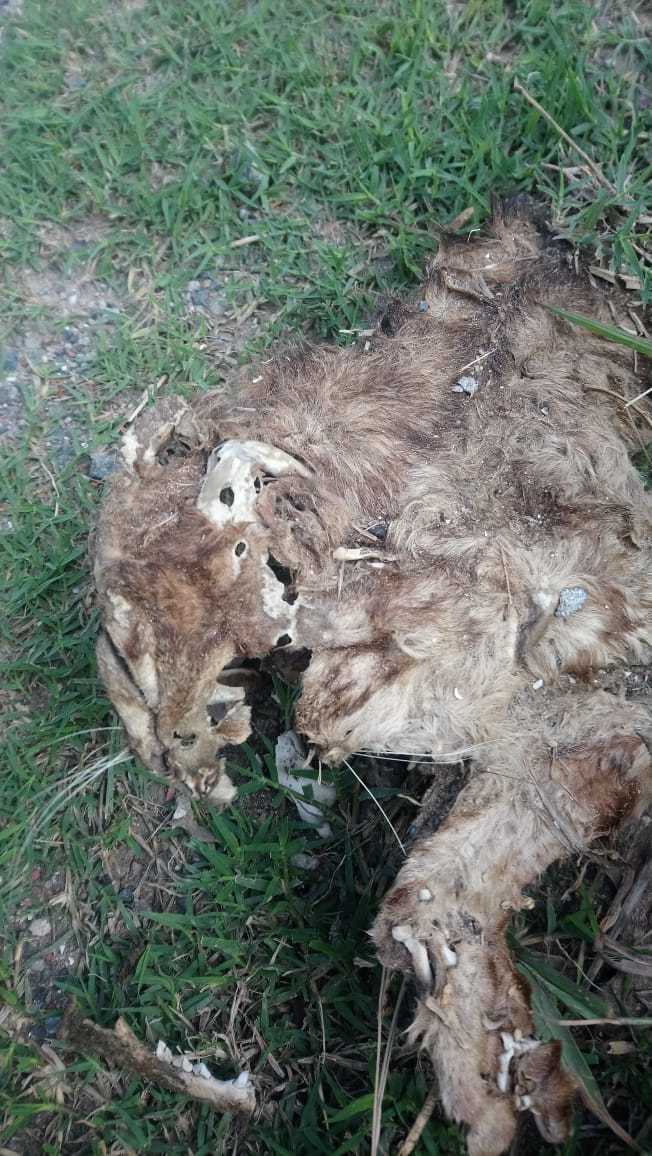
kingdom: Animalia
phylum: Chordata
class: Mammalia
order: Carnivora
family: Felidae
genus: Felis
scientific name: Felis catus
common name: Domestic cat
